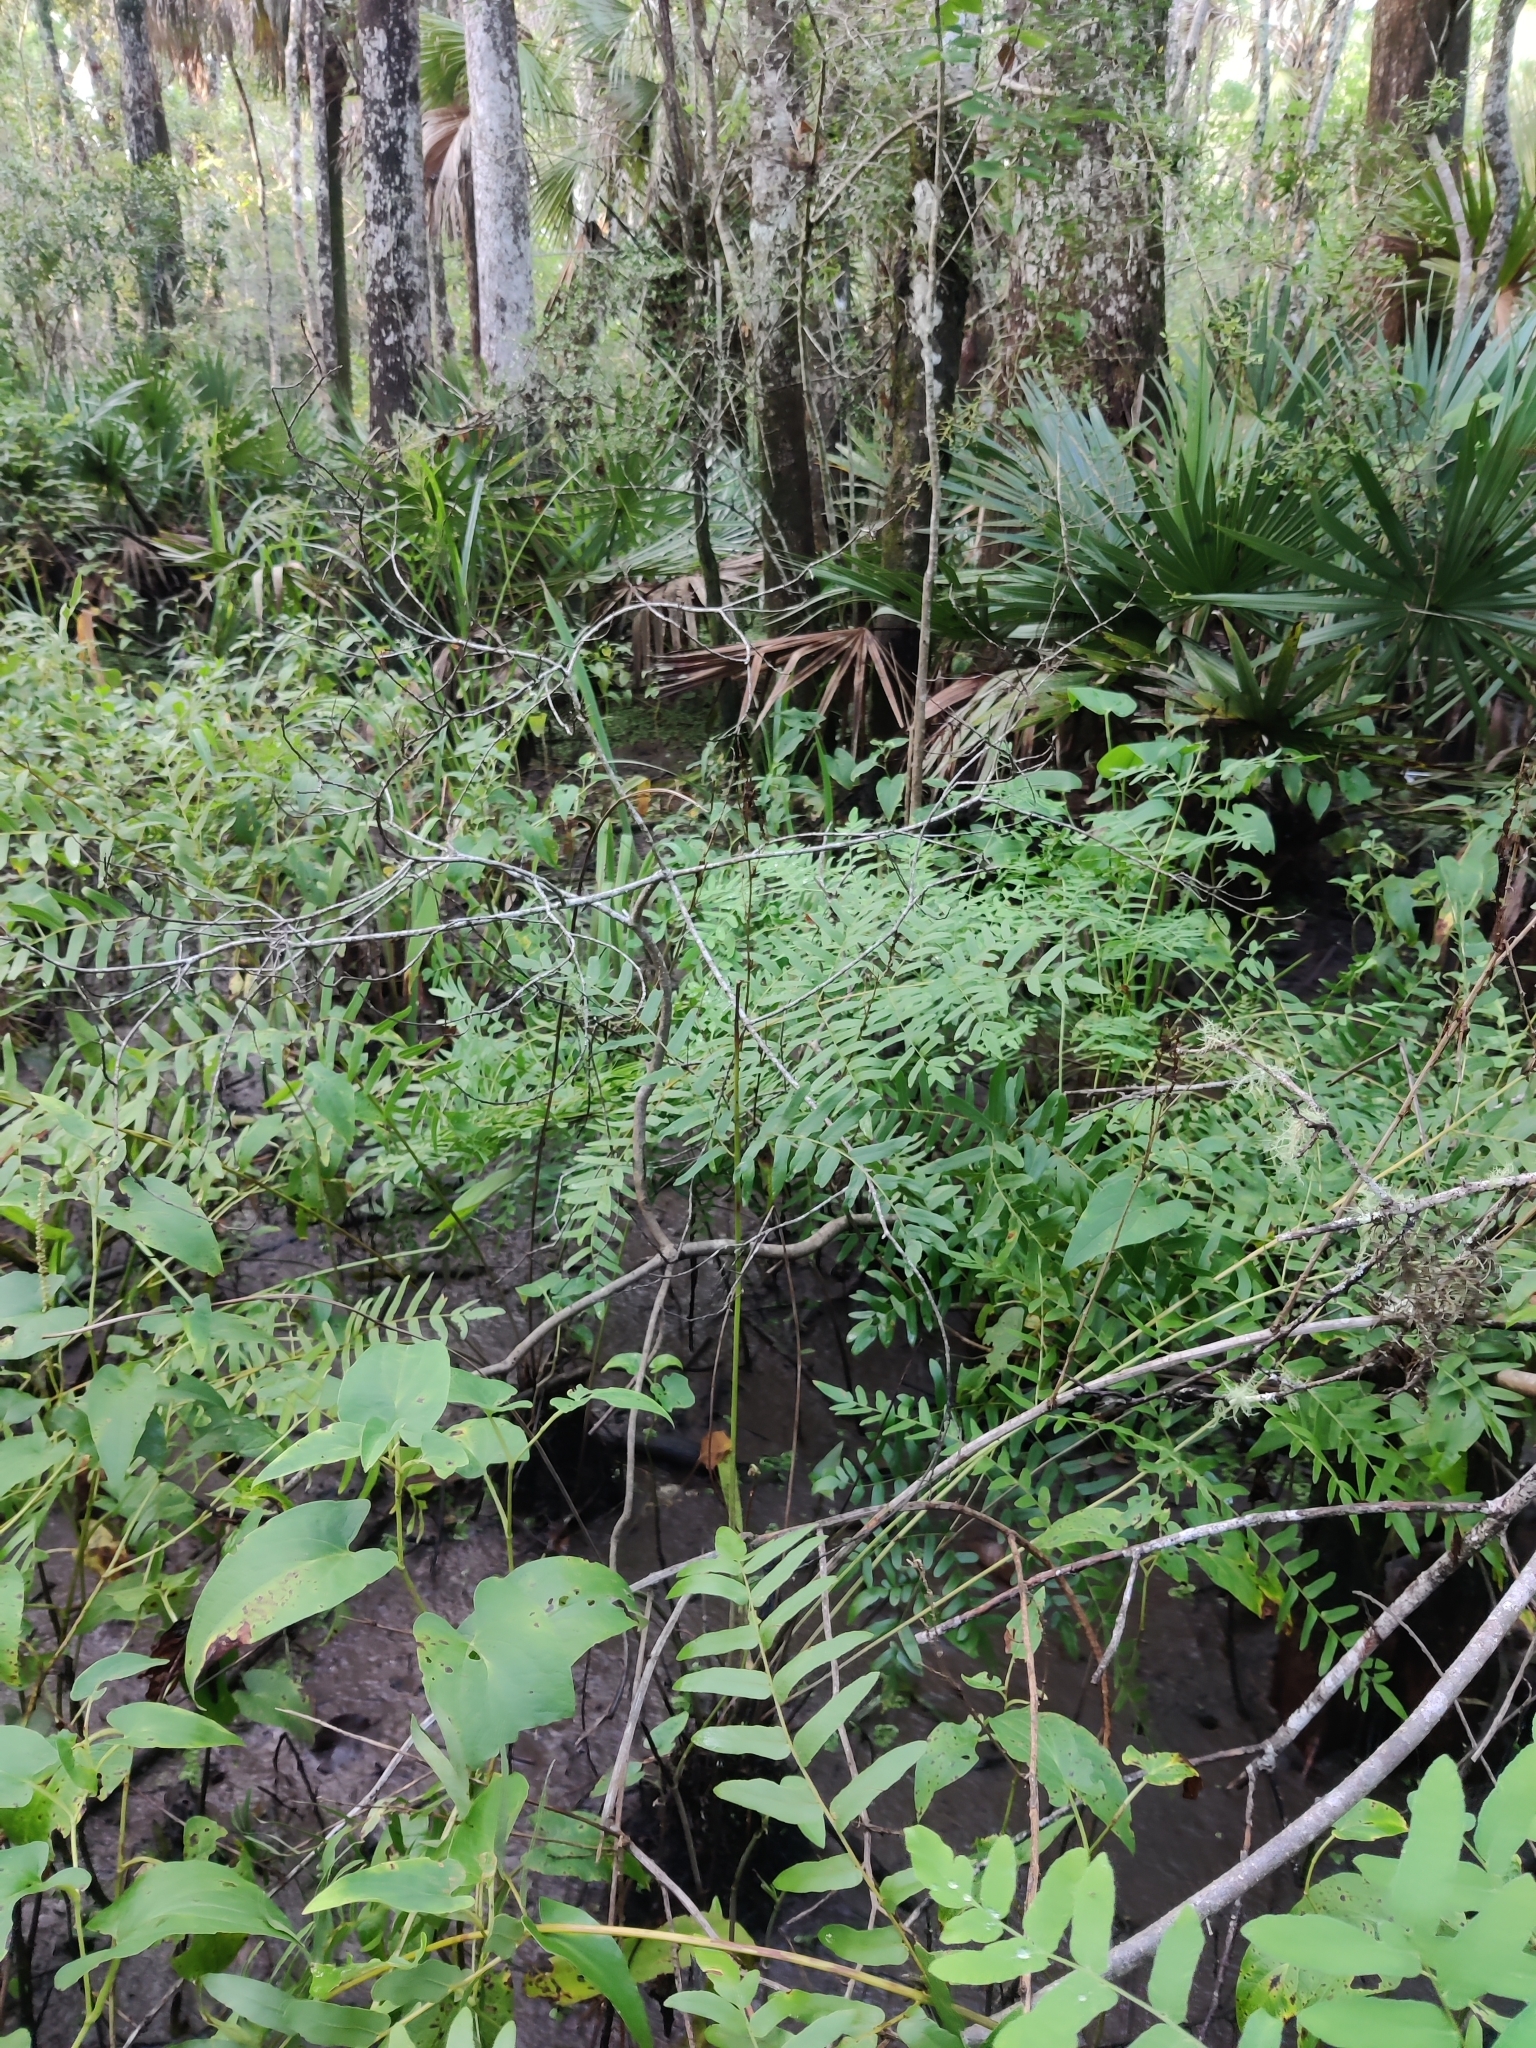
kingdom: Plantae
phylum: Tracheophyta
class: Polypodiopsida
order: Osmundales
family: Osmundaceae
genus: Osmunda
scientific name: Osmunda spectabilis
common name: American royal fern
